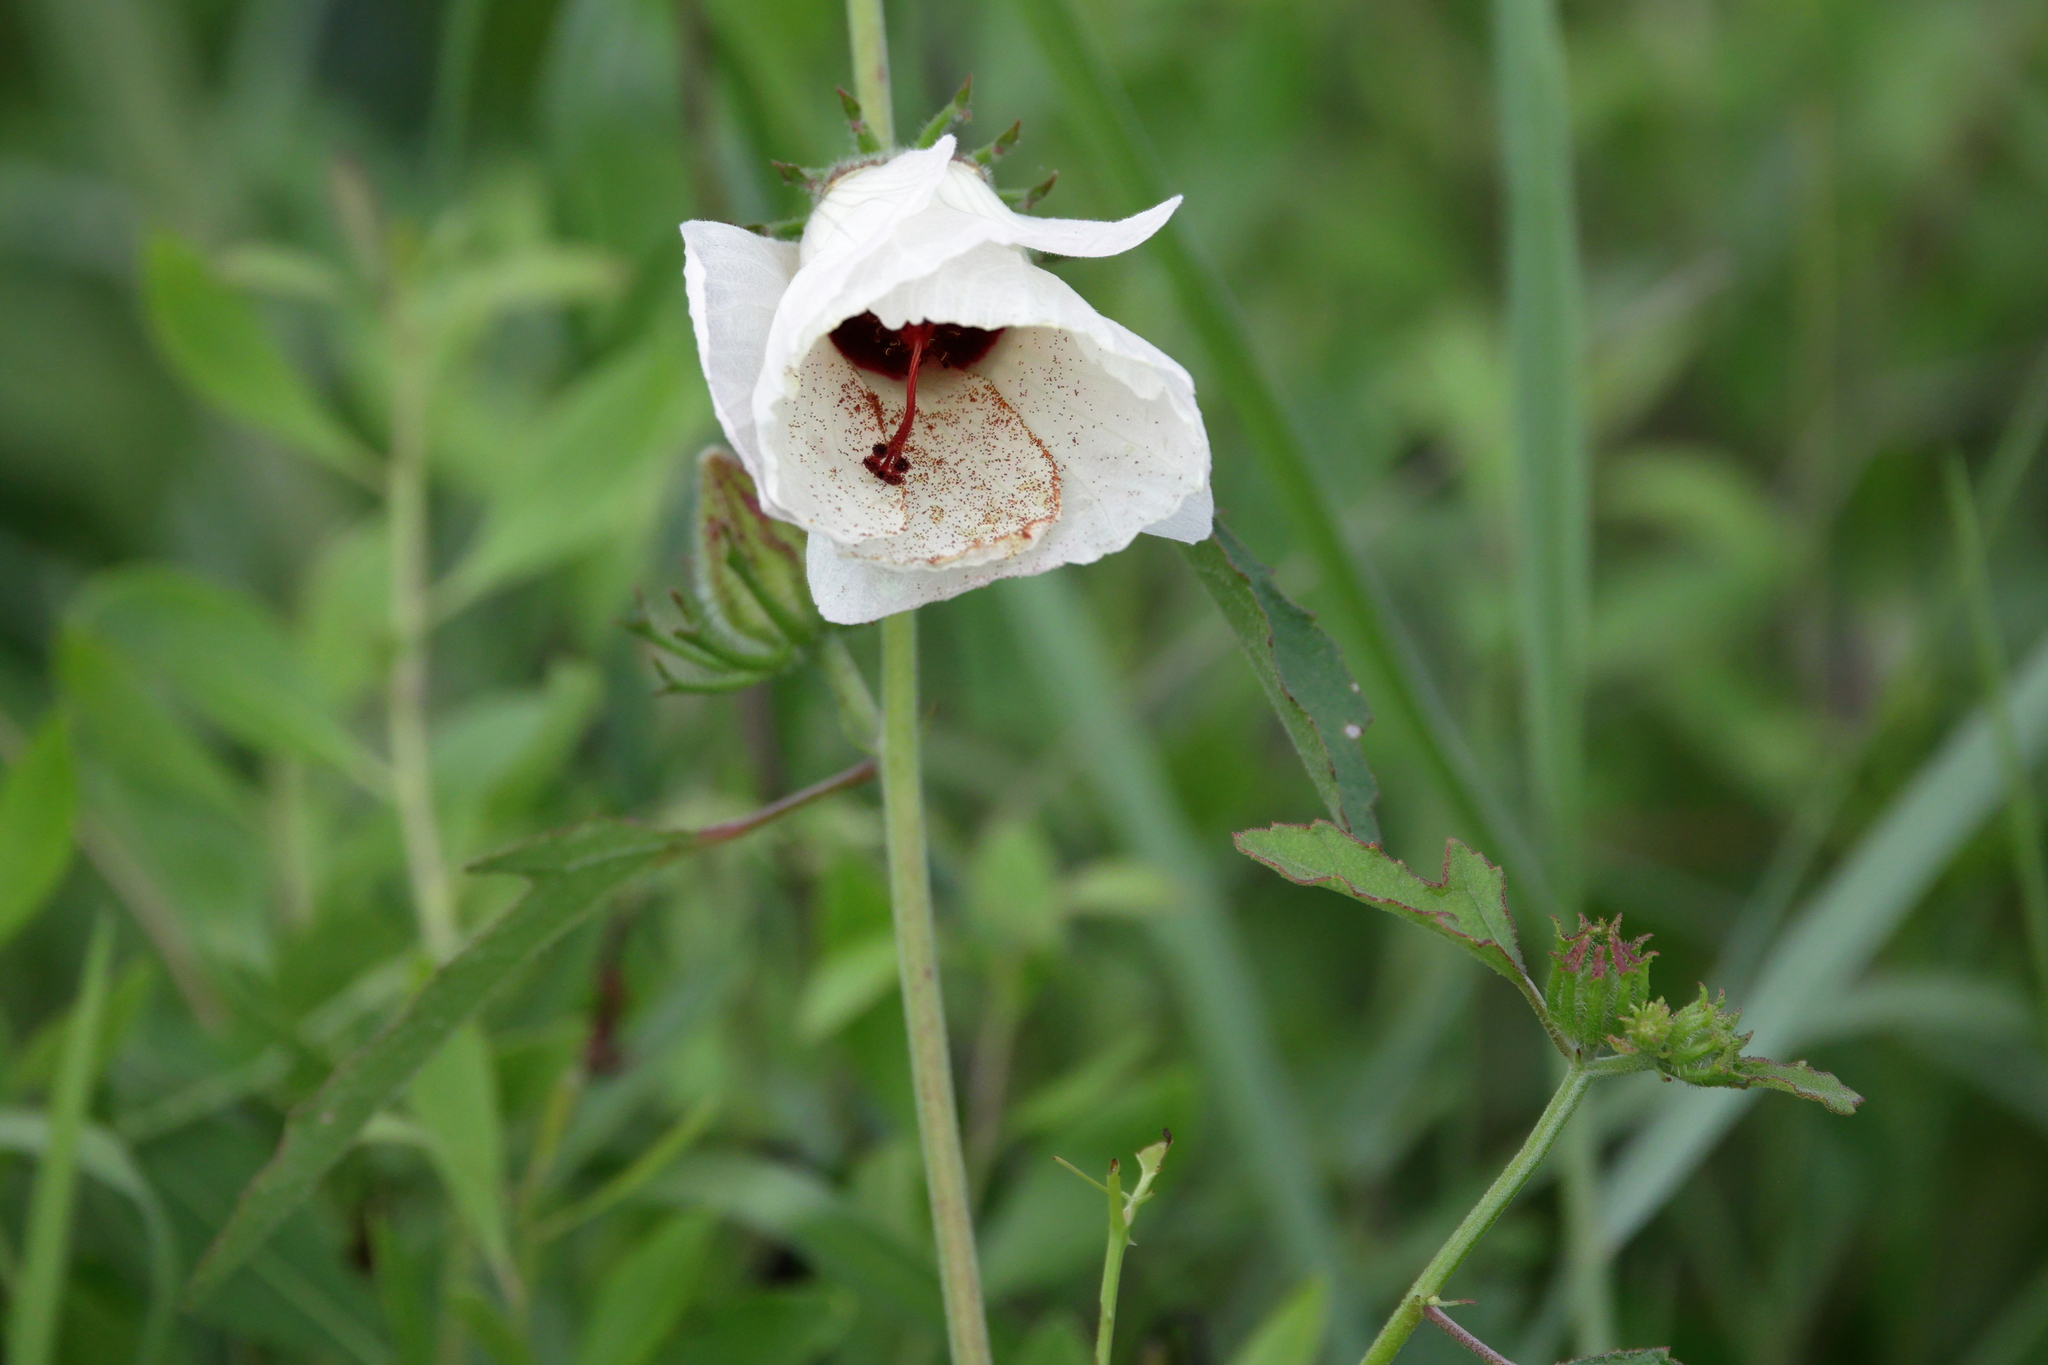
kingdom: Plantae
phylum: Tracheophyta
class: Magnoliopsida
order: Malvales
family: Malvaceae
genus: Hibiscus
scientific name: Hibiscus aculeatus
